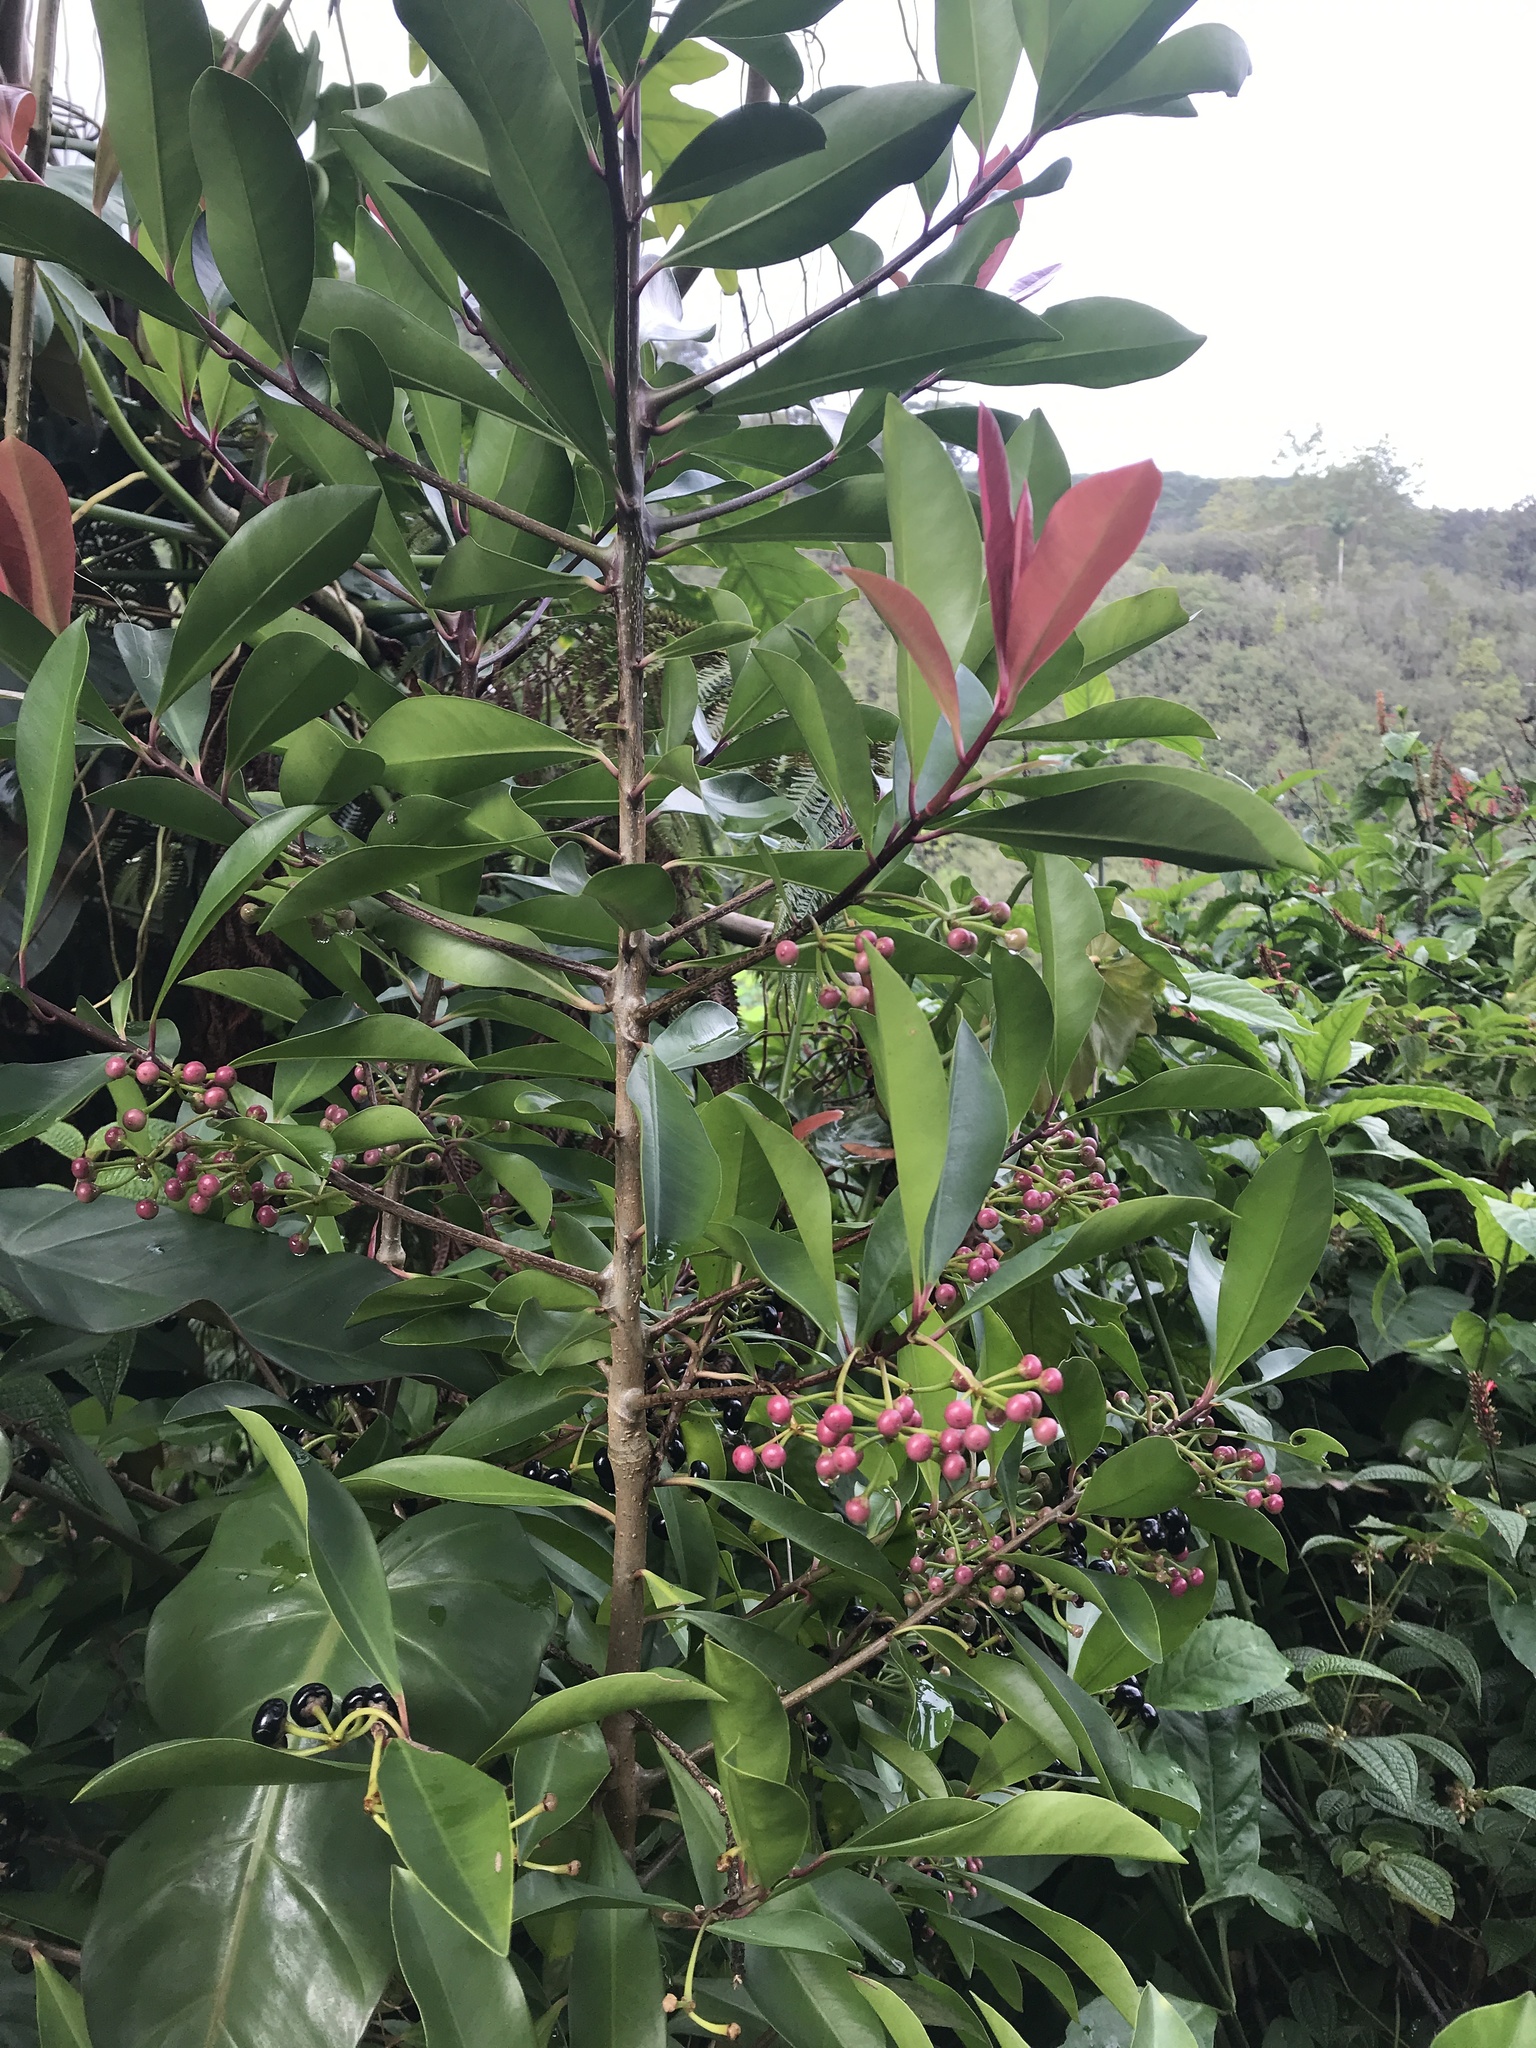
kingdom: Plantae
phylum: Tracheophyta
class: Magnoliopsida
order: Ericales
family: Primulaceae
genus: Ardisia
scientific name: Ardisia elliptica
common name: Shoebutton
